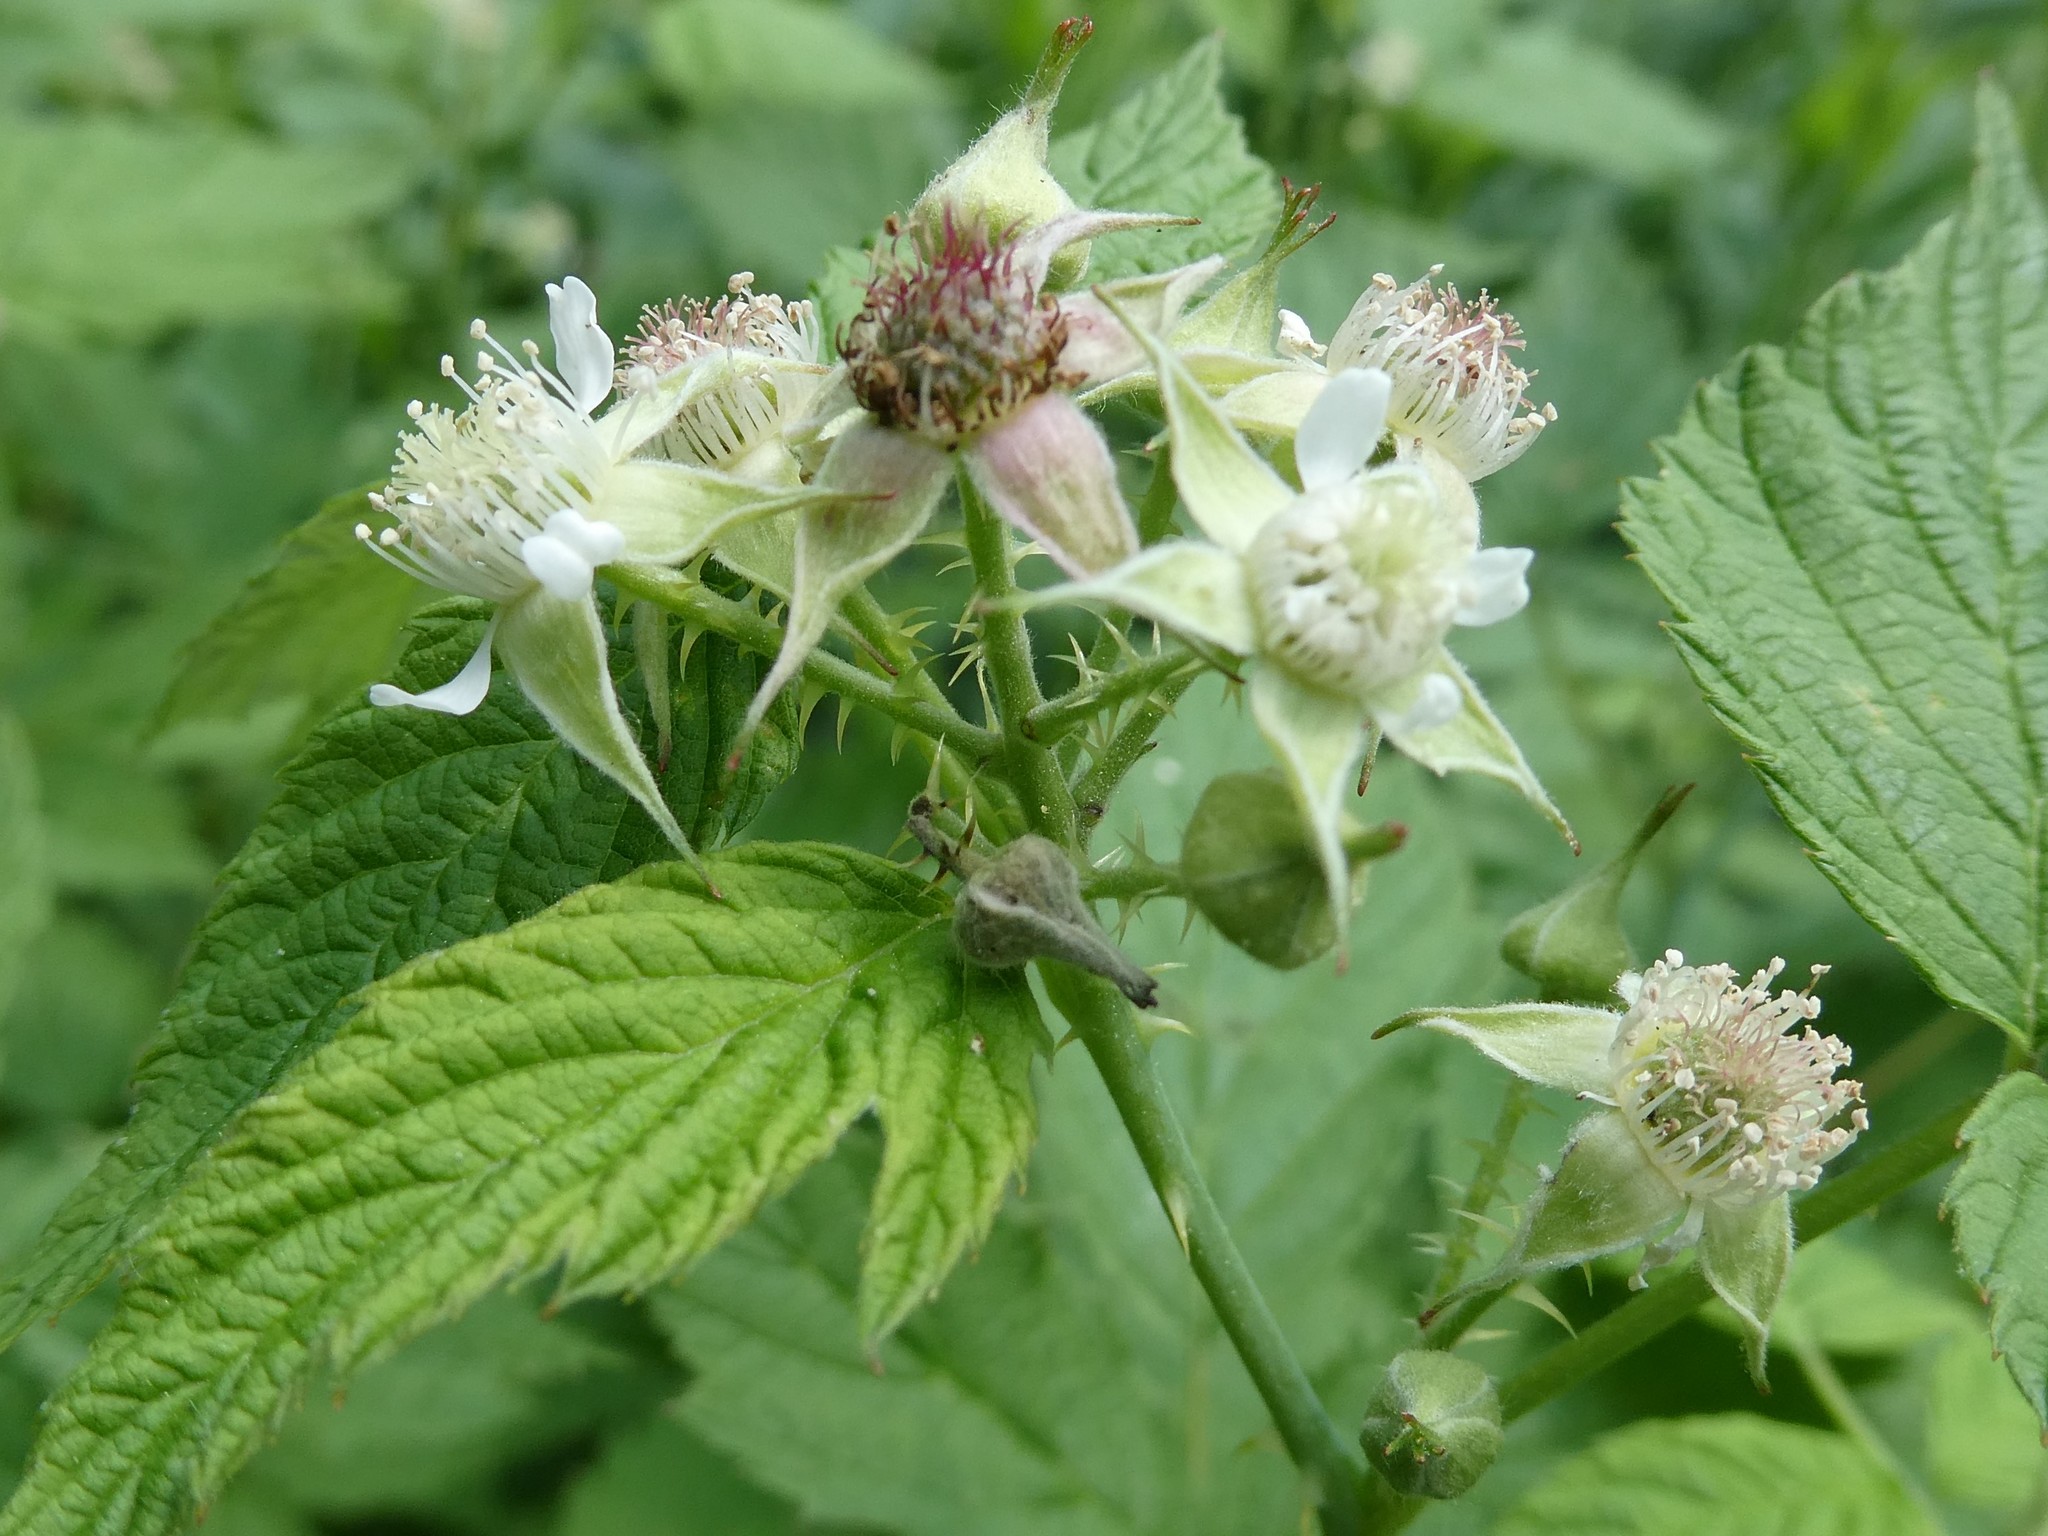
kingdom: Plantae
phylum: Tracheophyta
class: Magnoliopsida
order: Rosales
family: Rosaceae
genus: Rubus
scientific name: Rubus occidentalis
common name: Black raspberry
